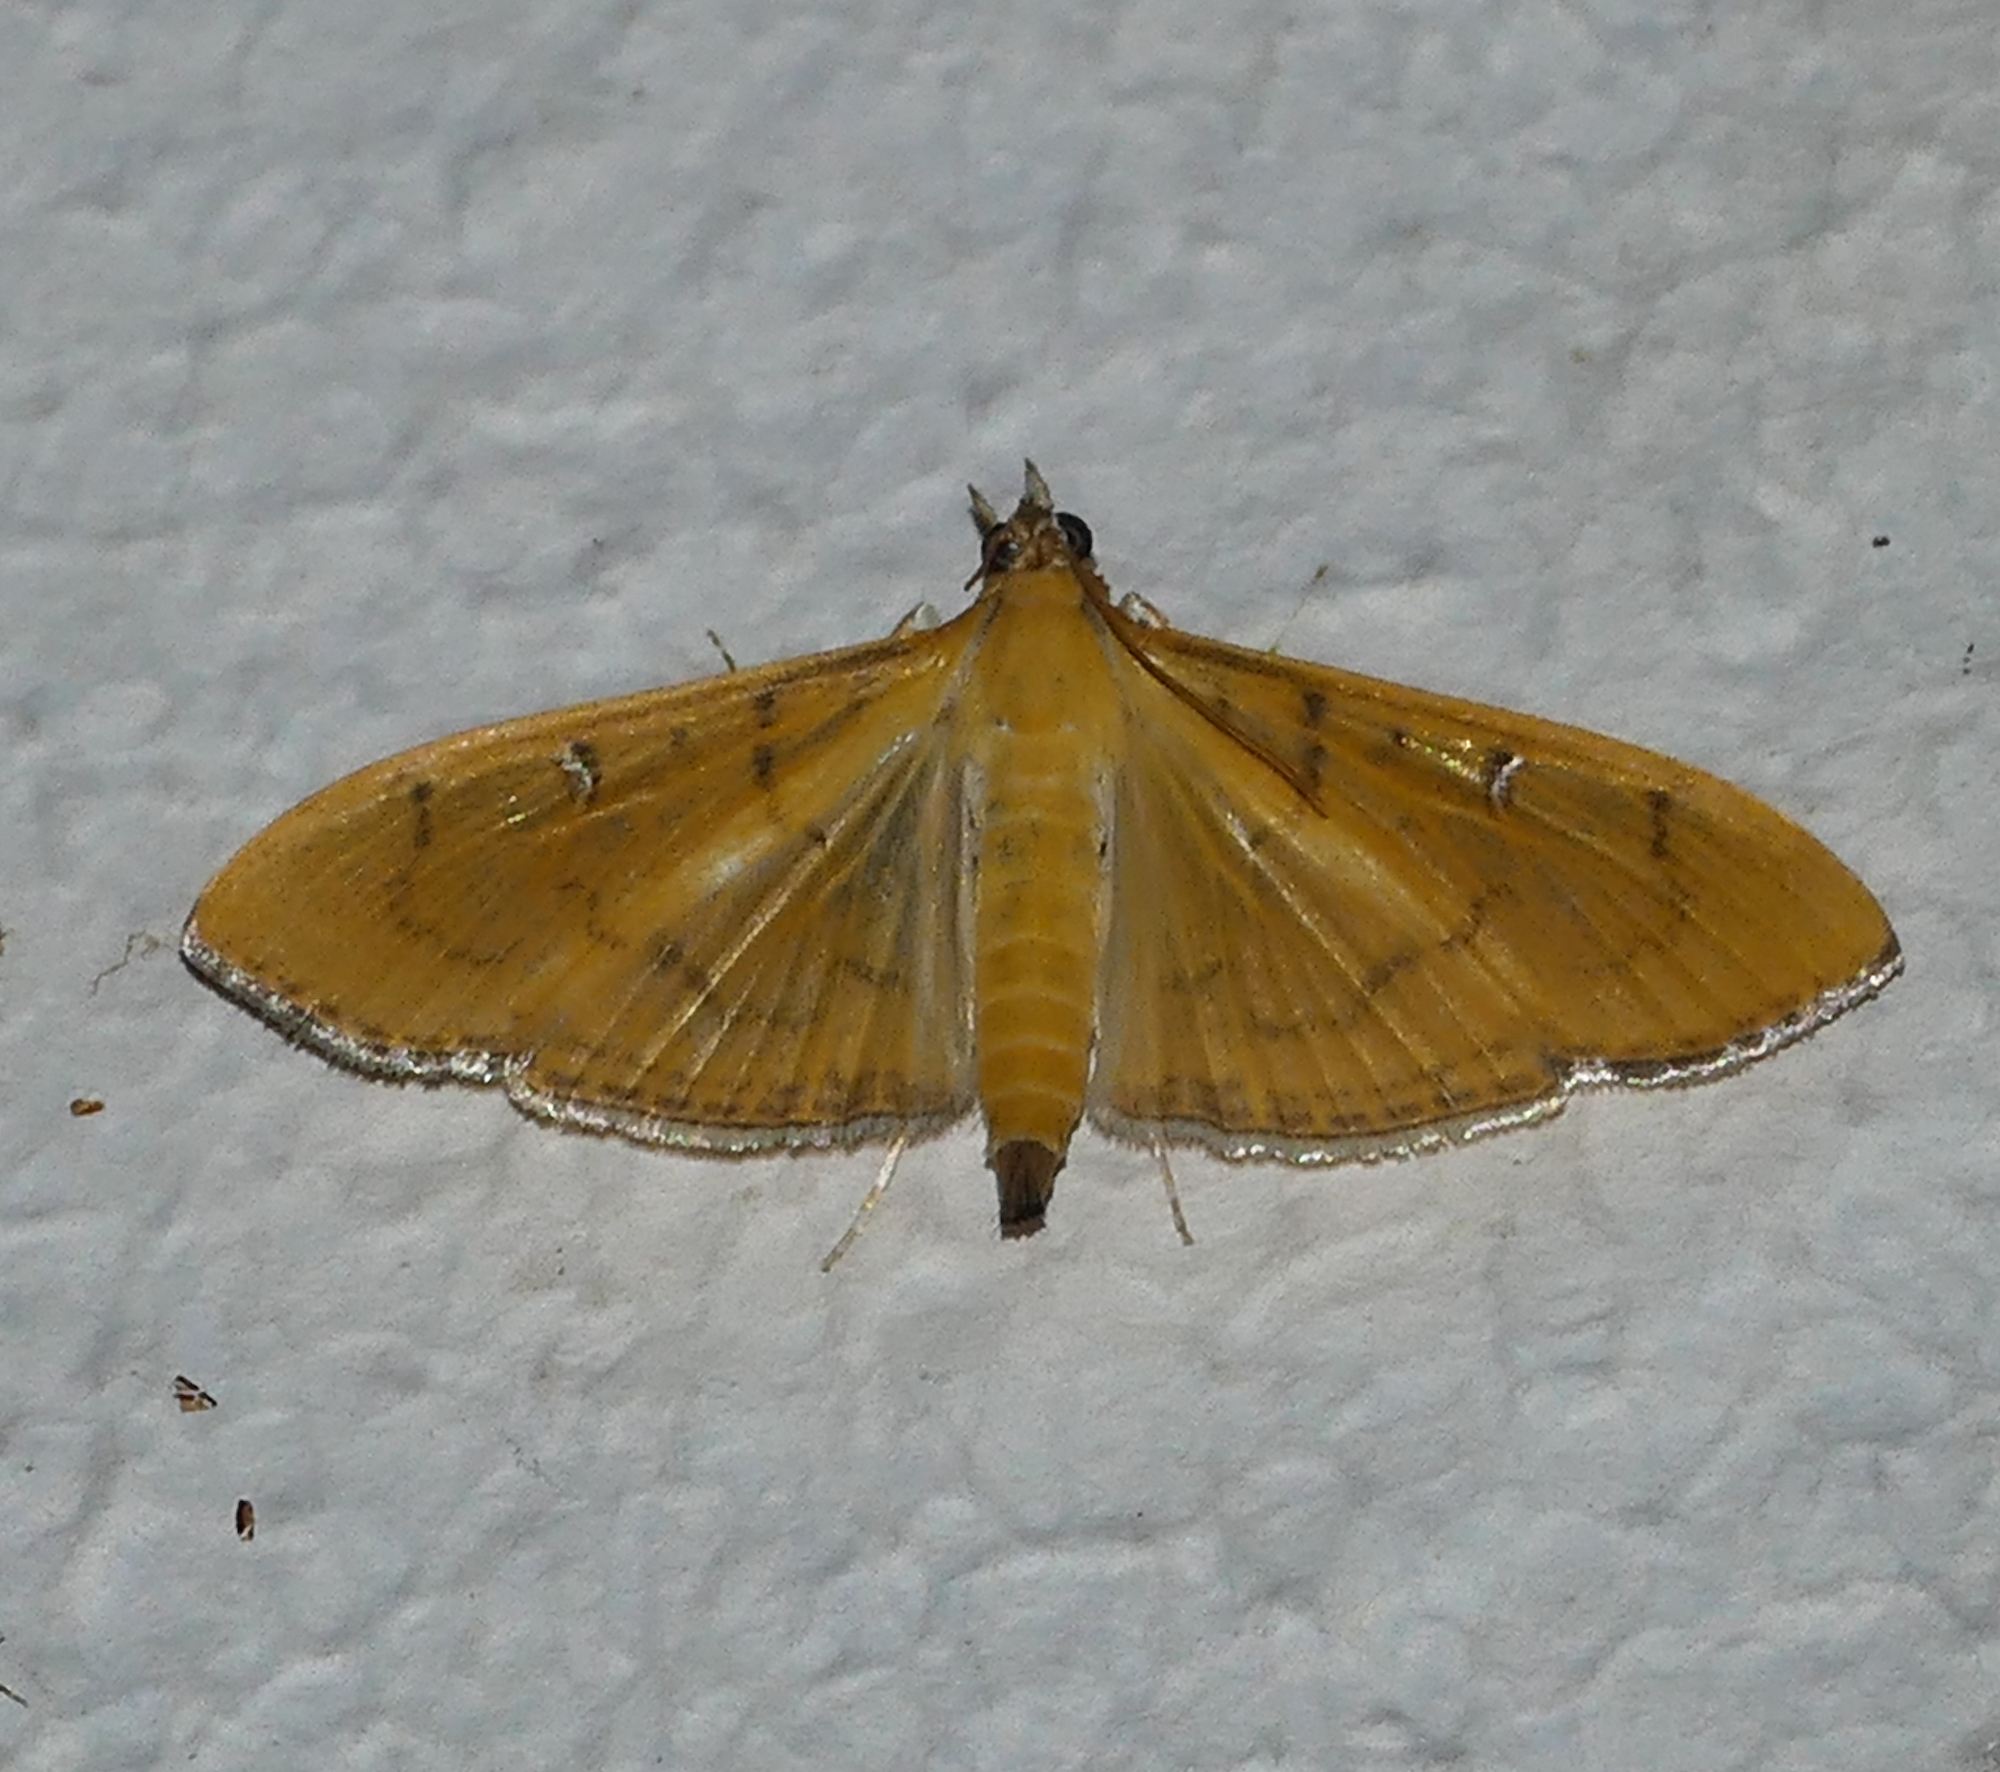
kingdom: Animalia
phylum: Arthropoda
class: Insecta
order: Lepidoptera
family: Crambidae
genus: Condylorrhiza
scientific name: Condylorrhiza vestigialis
